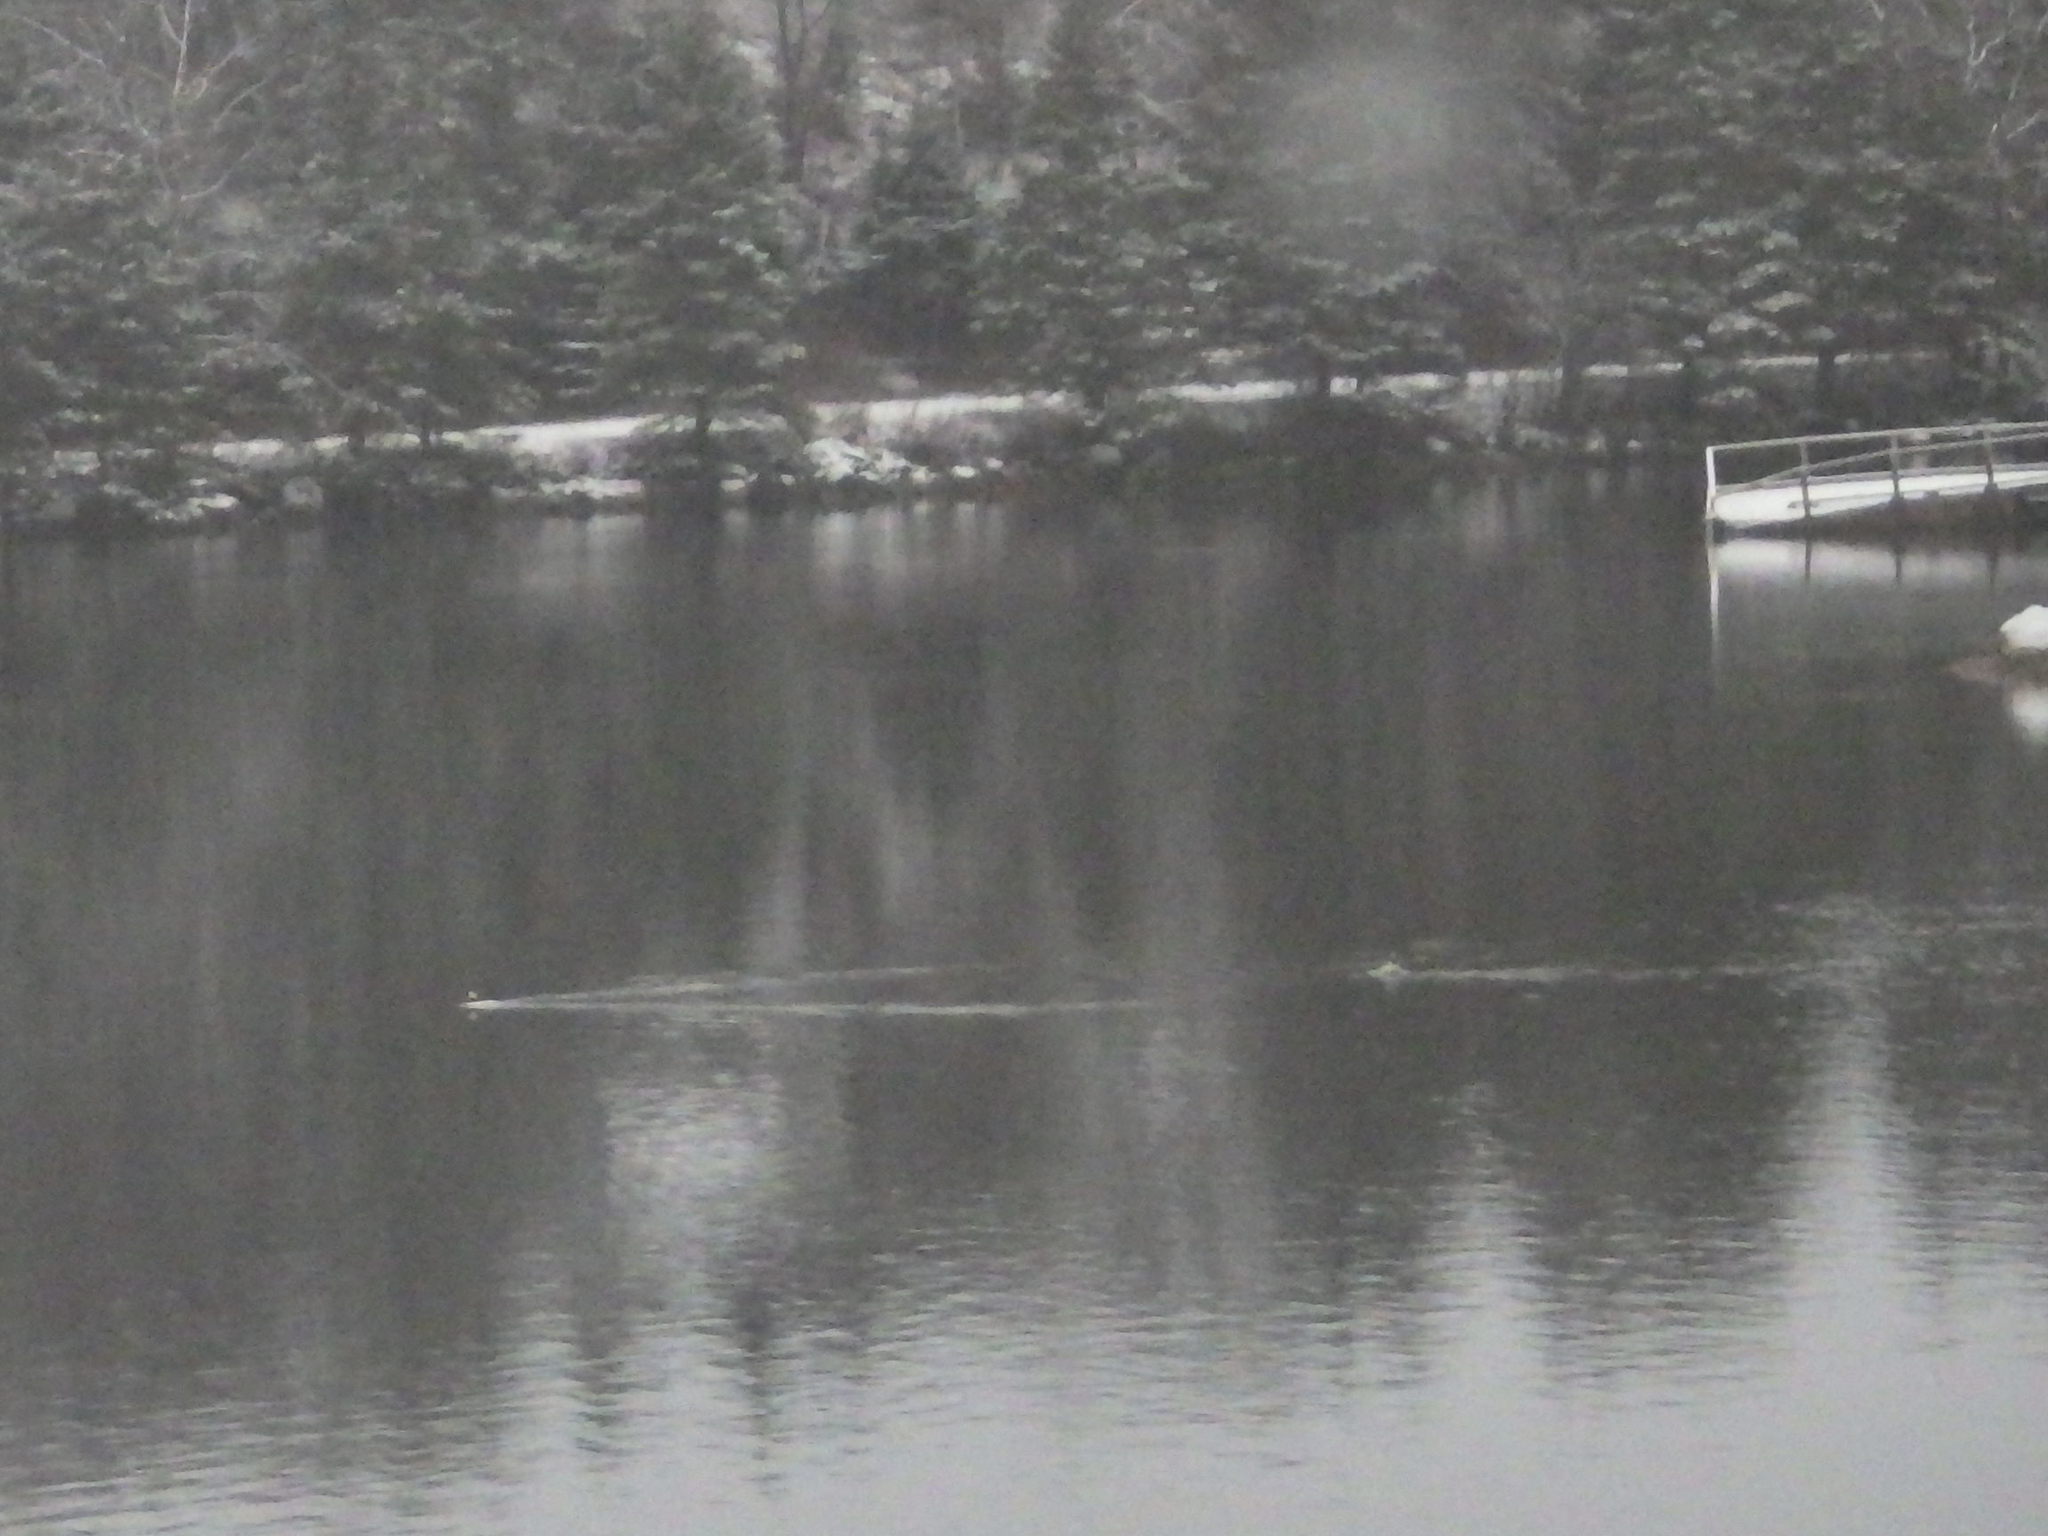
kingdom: Animalia
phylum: Chordata
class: Aves
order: Anseriformes
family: Anatidae
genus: Bucephala
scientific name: Bucephala albeola
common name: Bufflehead
